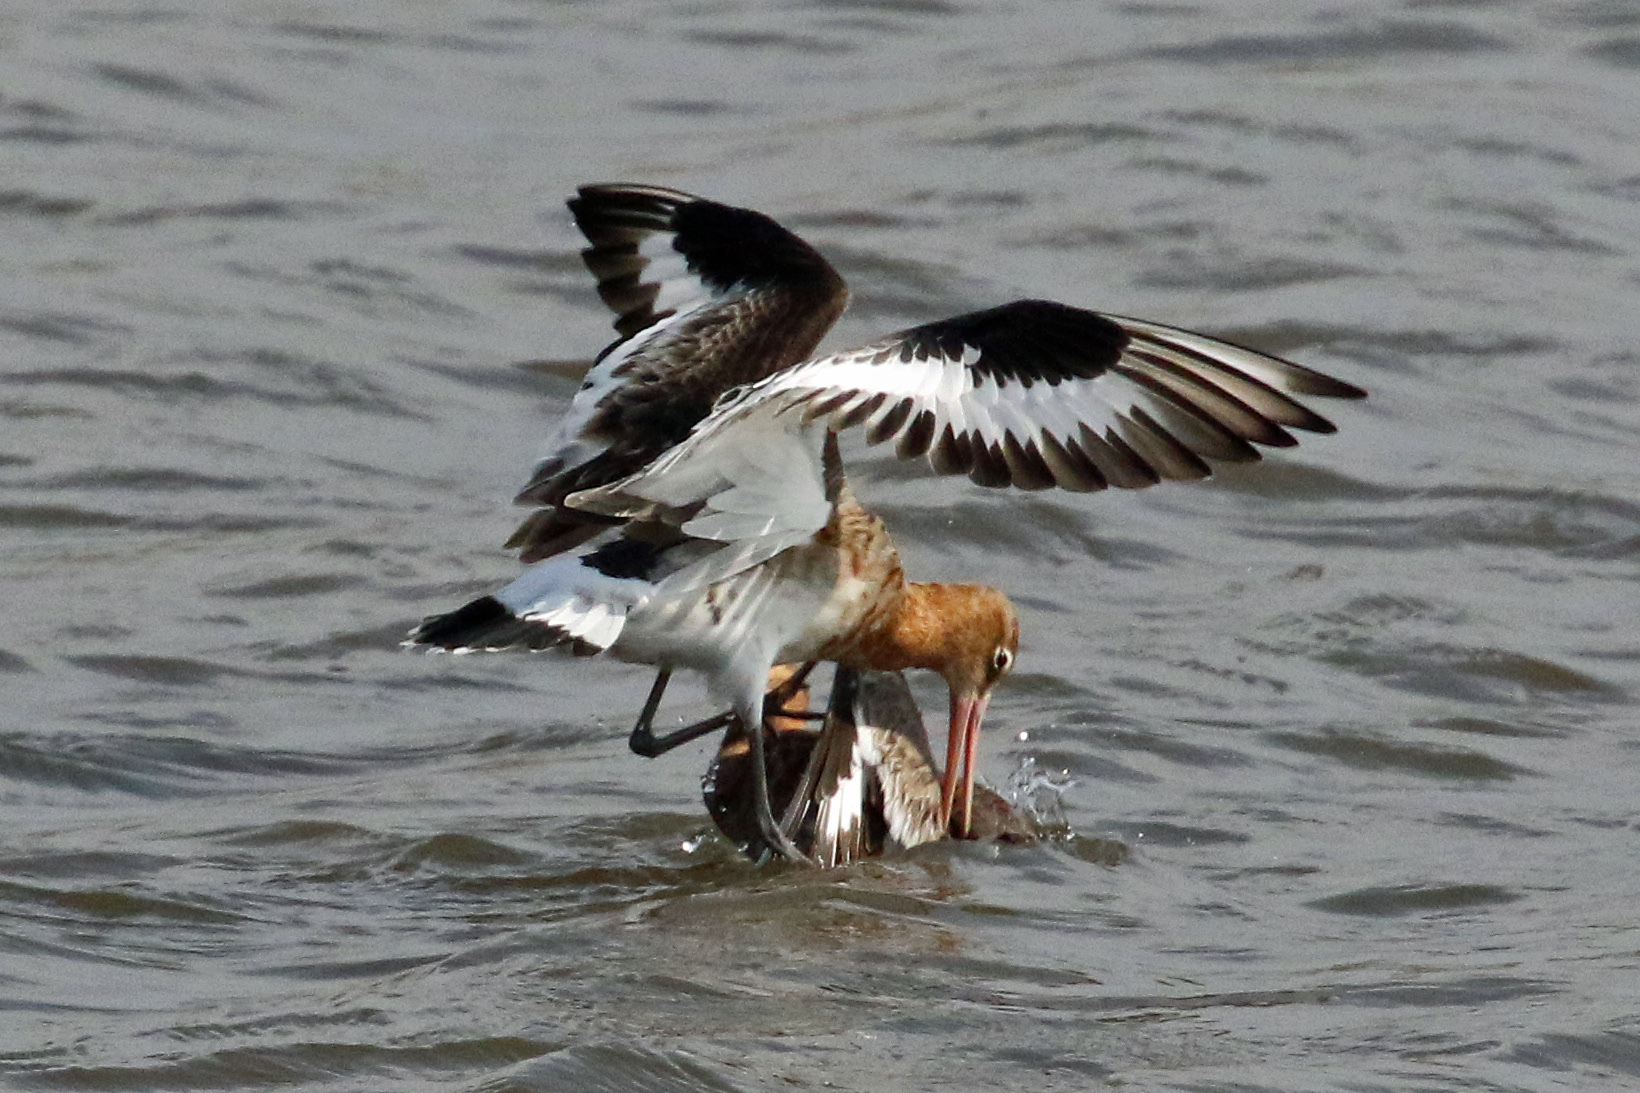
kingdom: Animalia
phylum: Chordata
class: Aves
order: Charadriiformes
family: Scolopacidae
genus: Limosa
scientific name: Limosa limosa
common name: Black-tailed godwit
